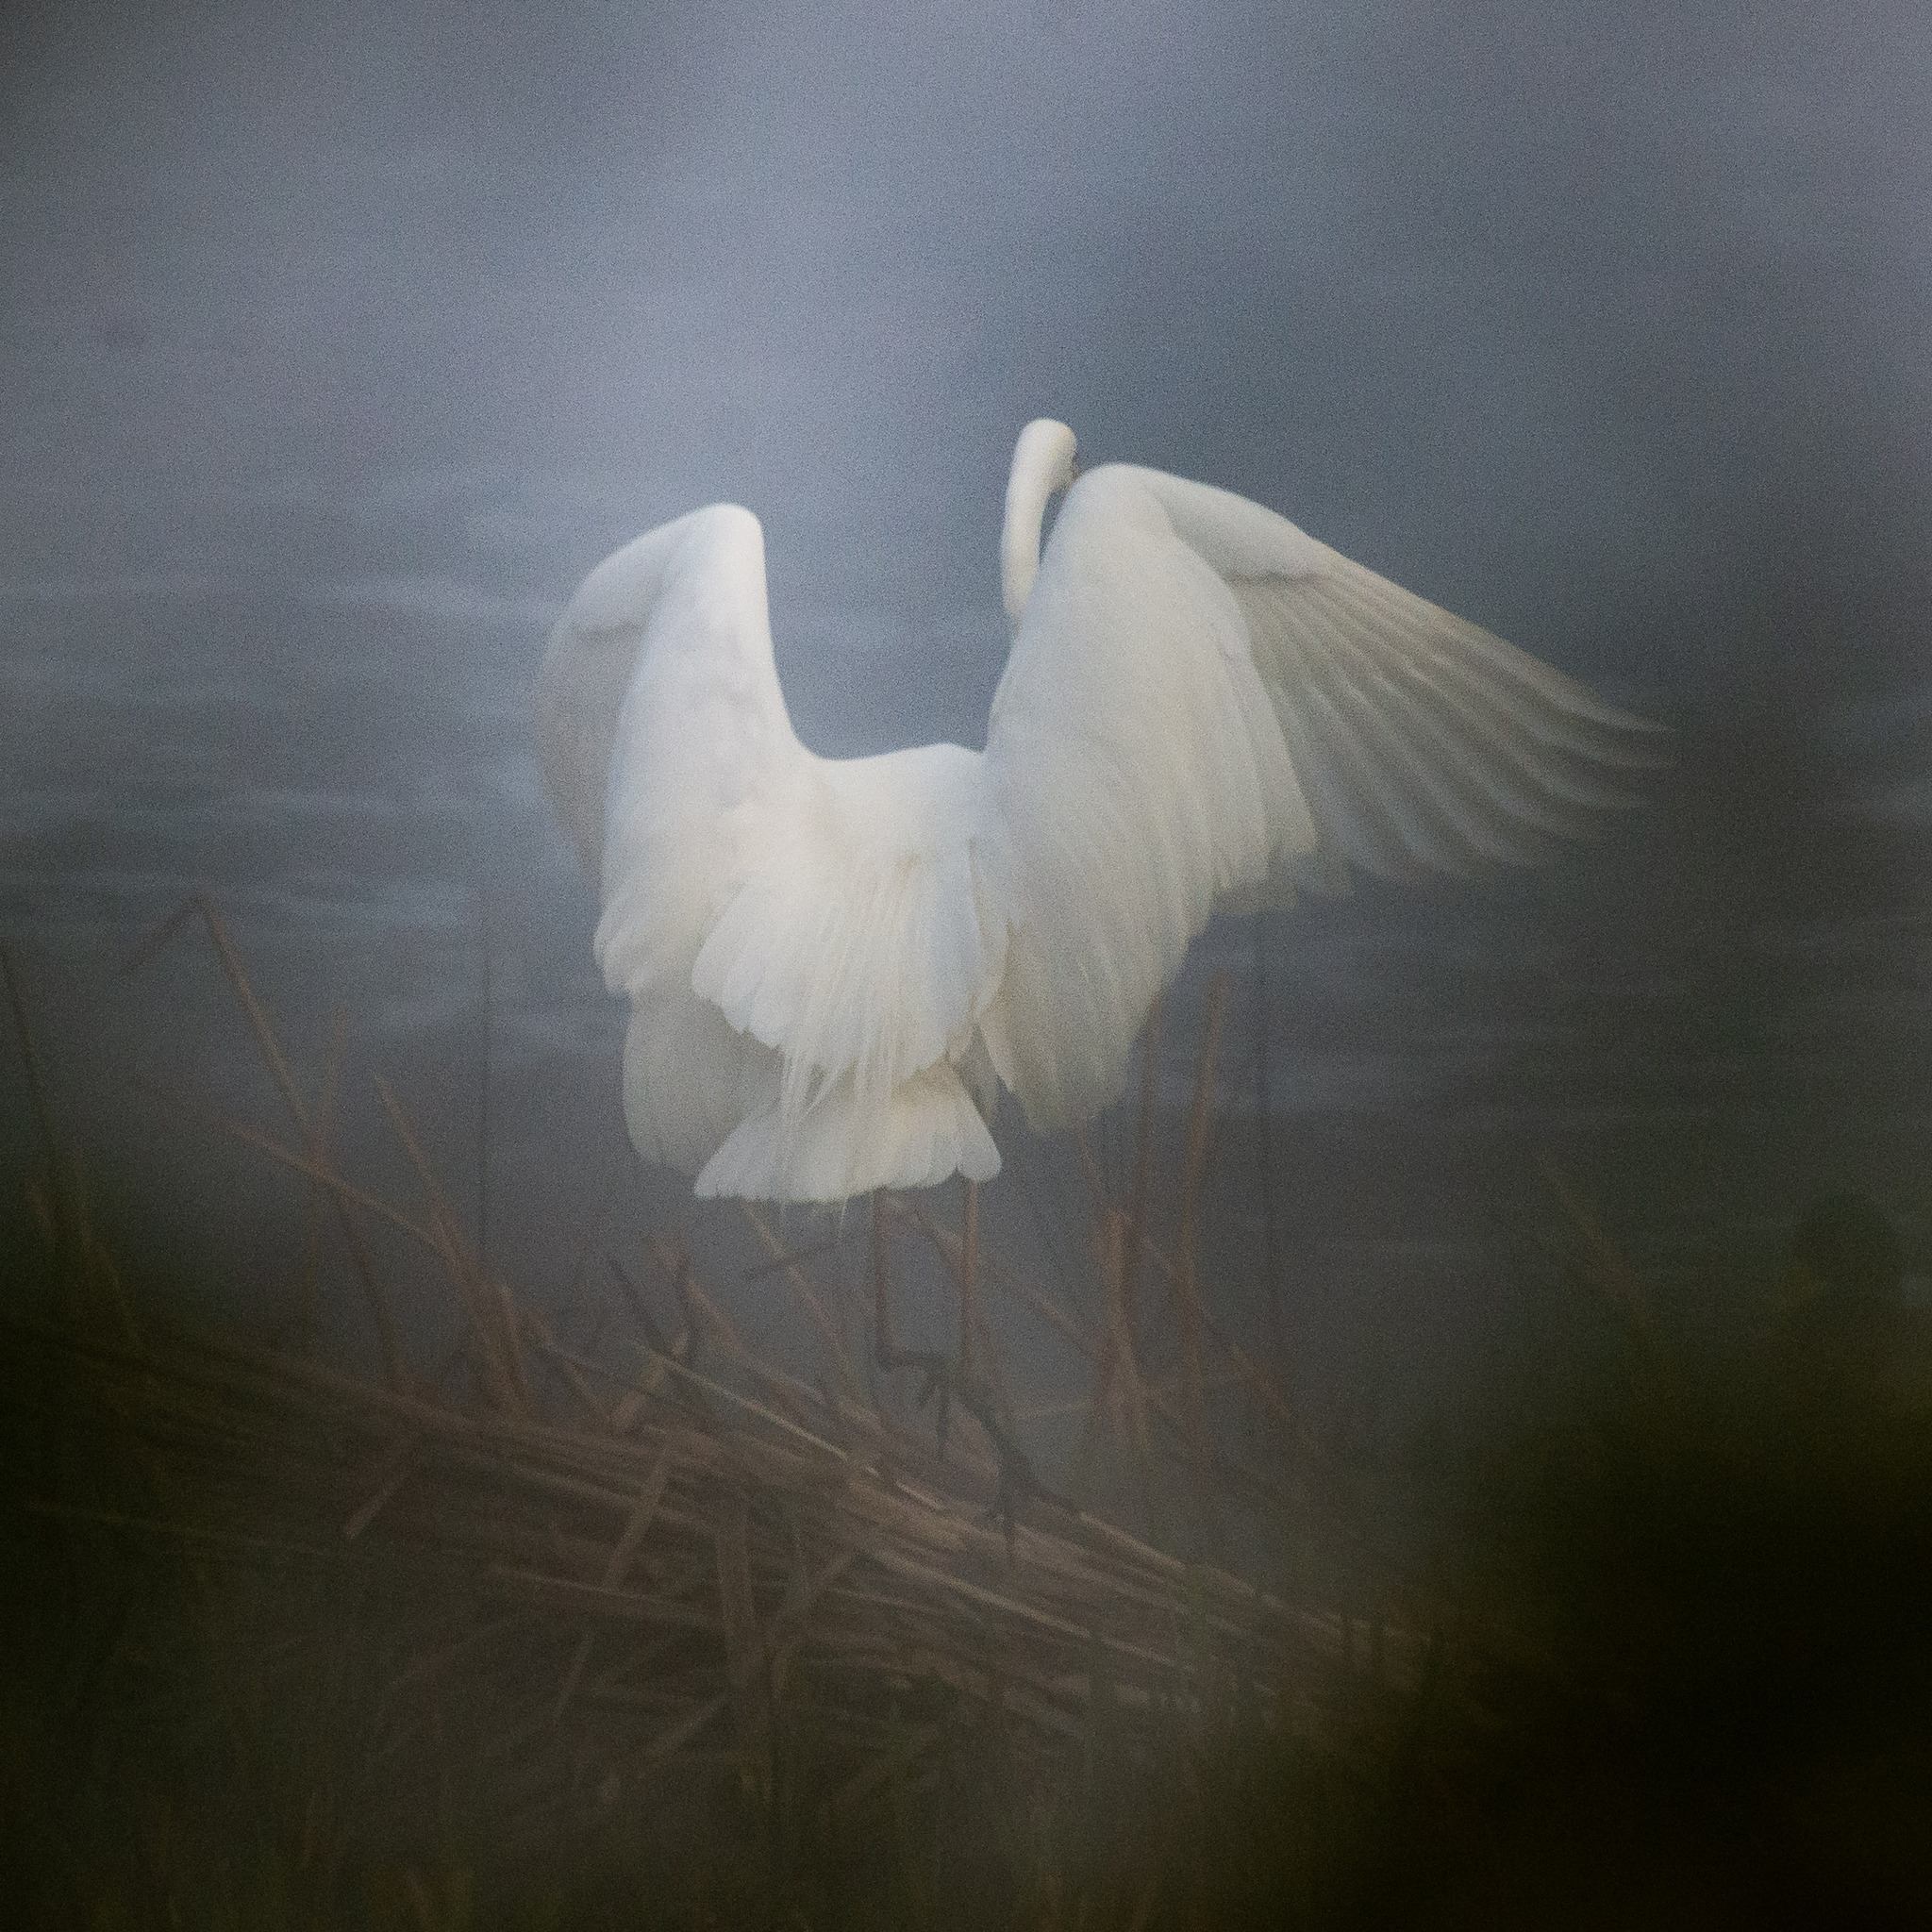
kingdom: Animalia
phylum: Chordata
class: Aves
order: Pelecaniformes
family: Ardeidae
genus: Ardea
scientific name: Ardea alba
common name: Great egret
